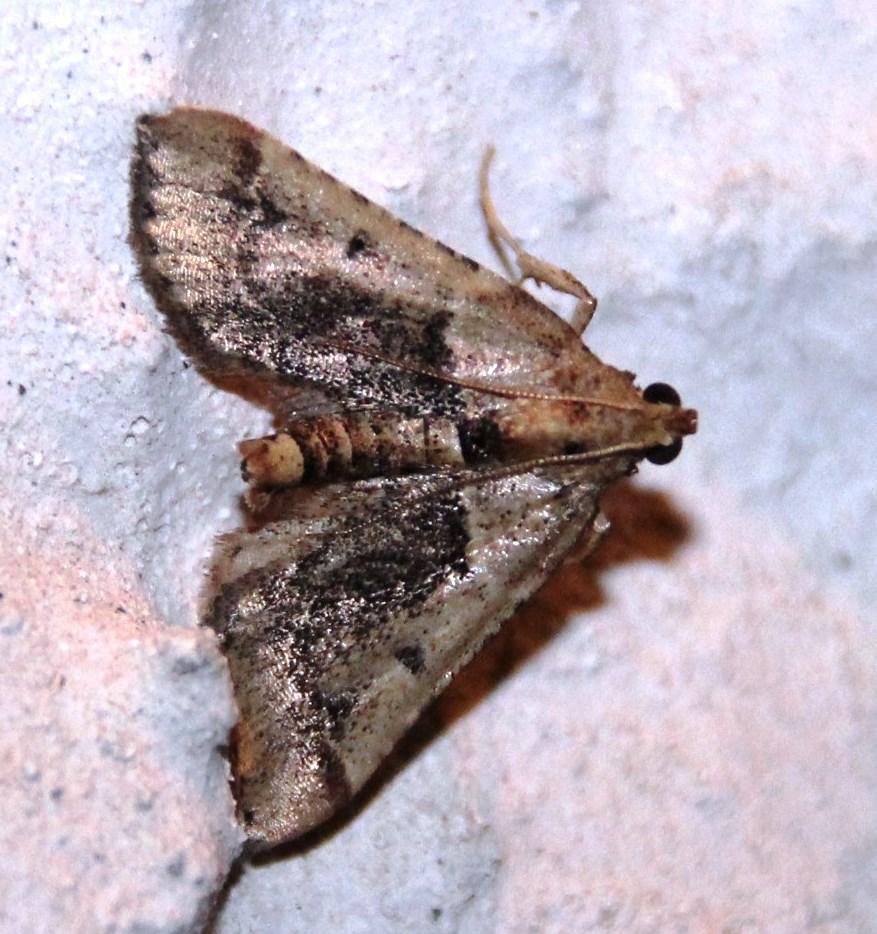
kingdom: Animalia
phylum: Arthropoda
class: Insecta
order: Lepidoptera
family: Pyralidae
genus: Tegulifera
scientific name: Tegulifera tristiculalis
